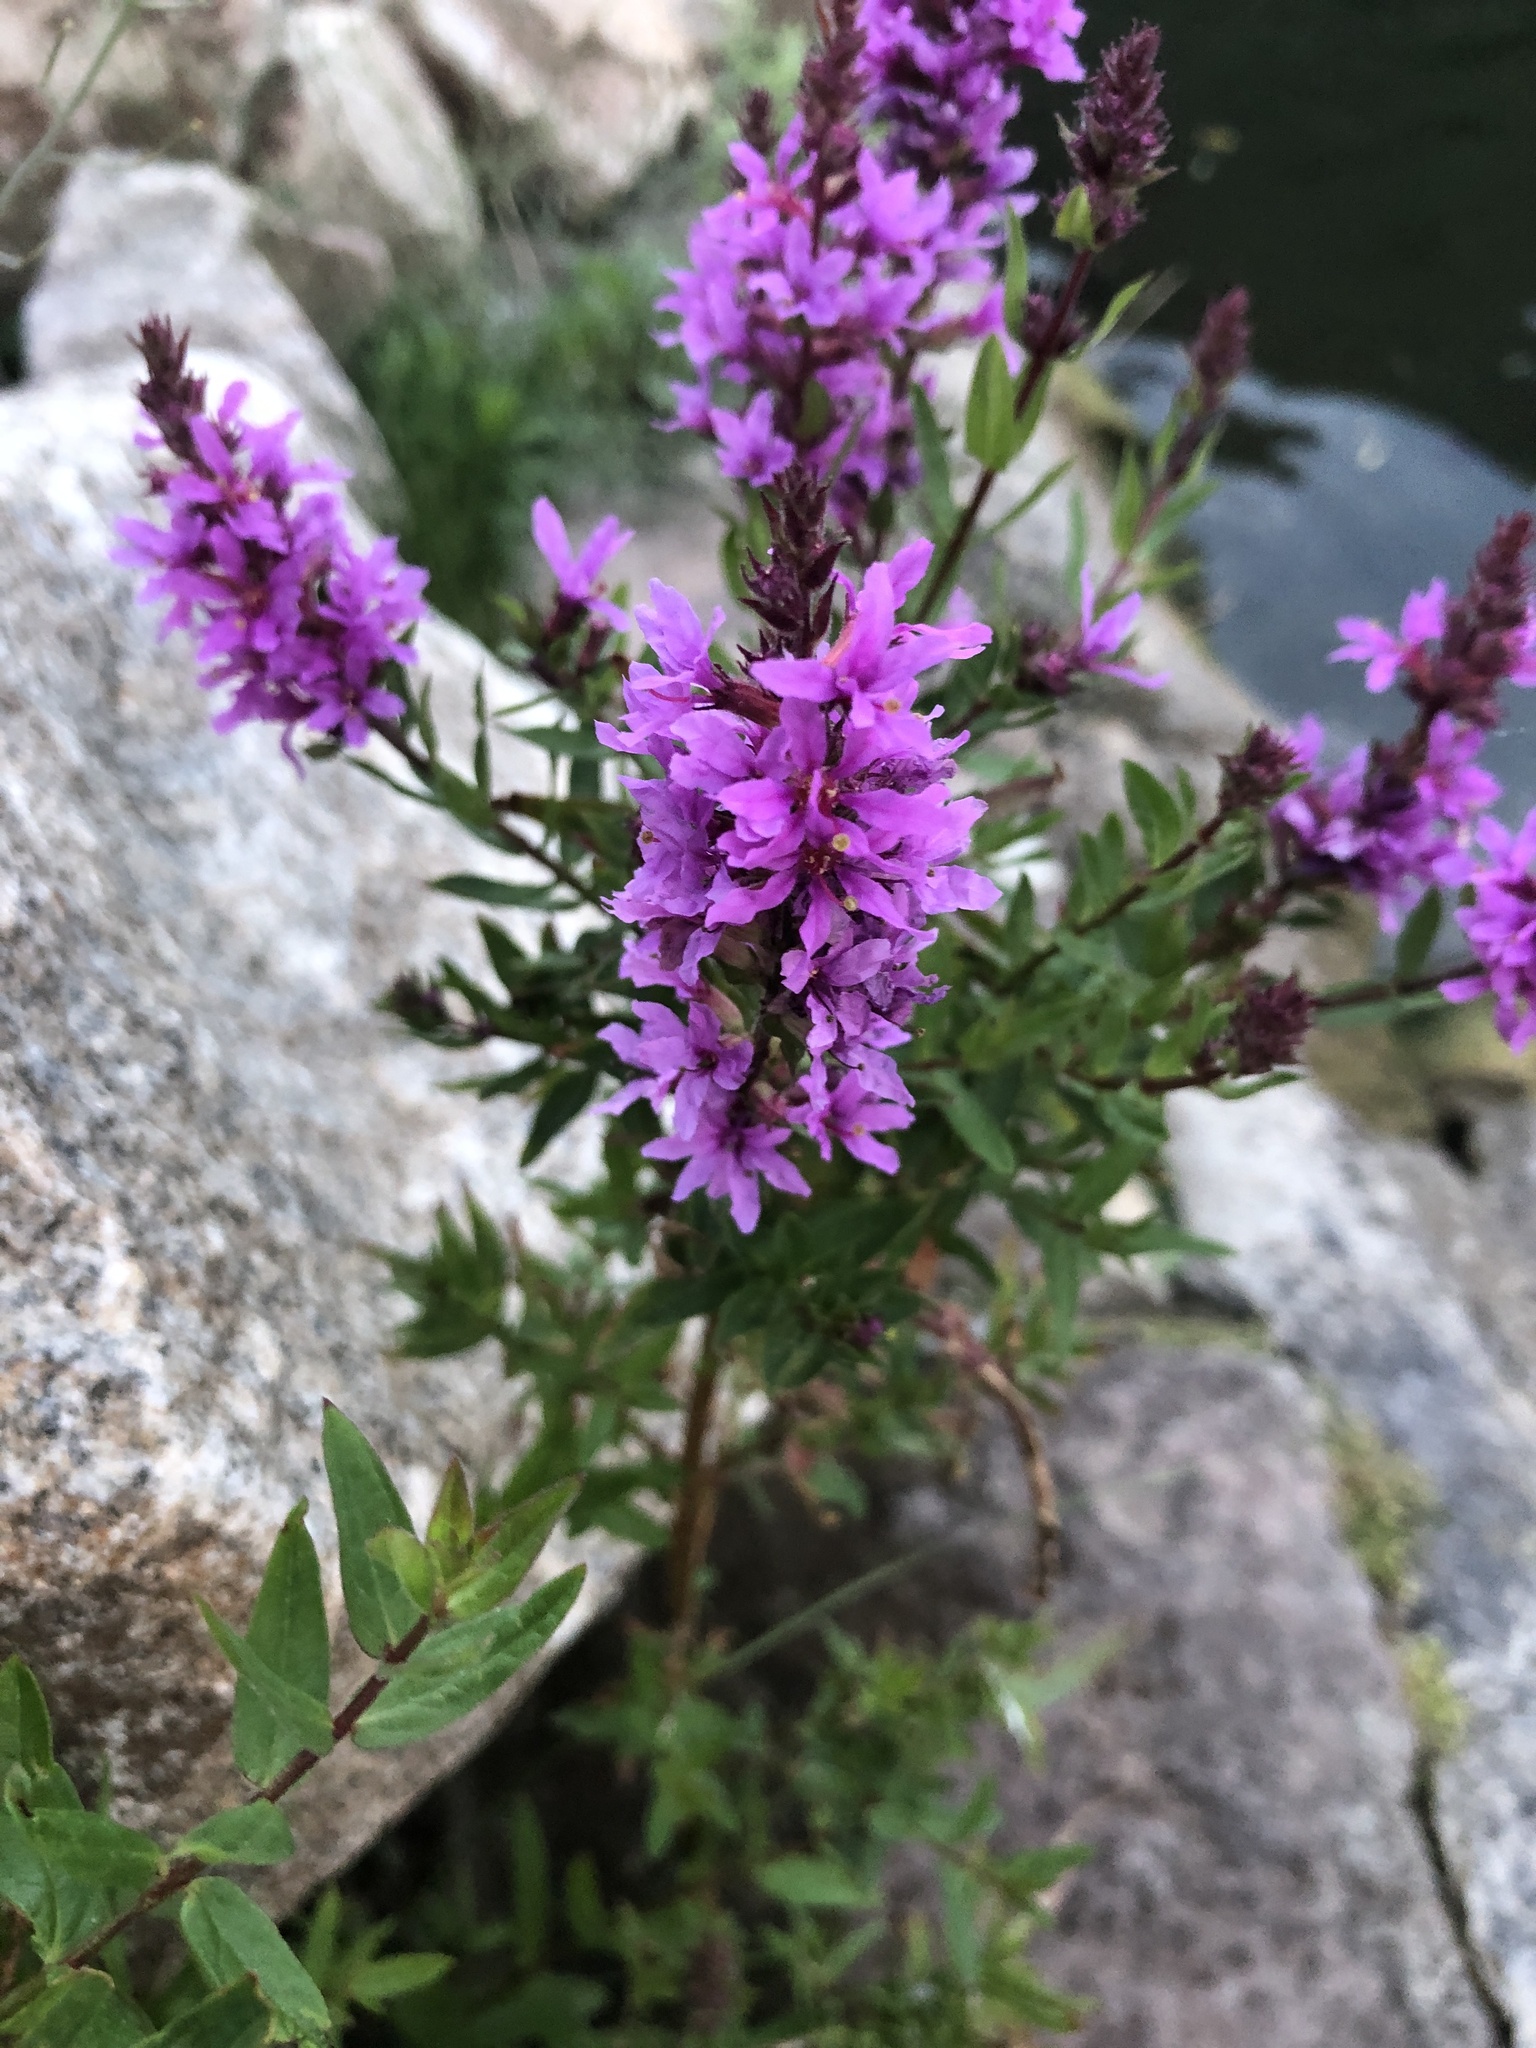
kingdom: Plantae
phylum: Tracheophyta
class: Magnoliopsida
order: Myrtales
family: Lythraceae
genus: Lythrum
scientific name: Lythrum salicaria
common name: Purple loosestrife
